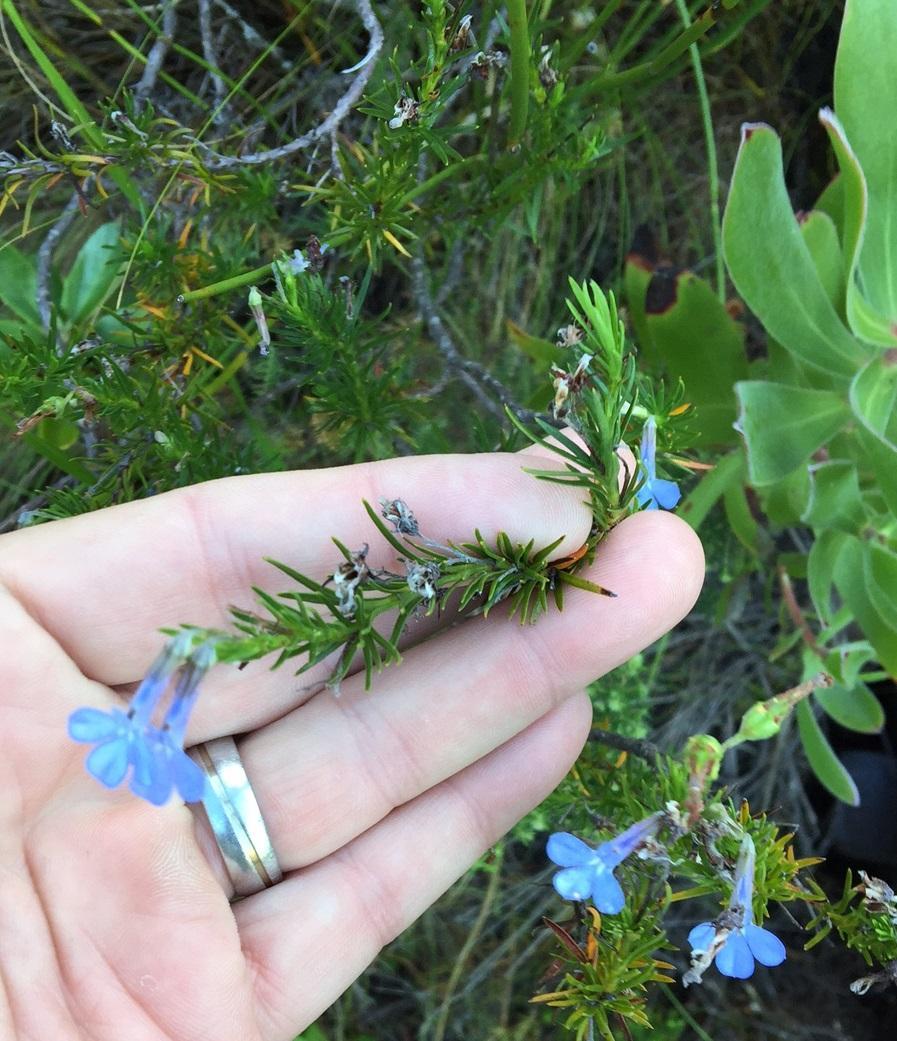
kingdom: Plantae
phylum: Tracheophyta
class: Magnoliopsida
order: Asterales
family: Campanulaceae
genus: Lobelia
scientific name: Lobelia pinifolia
